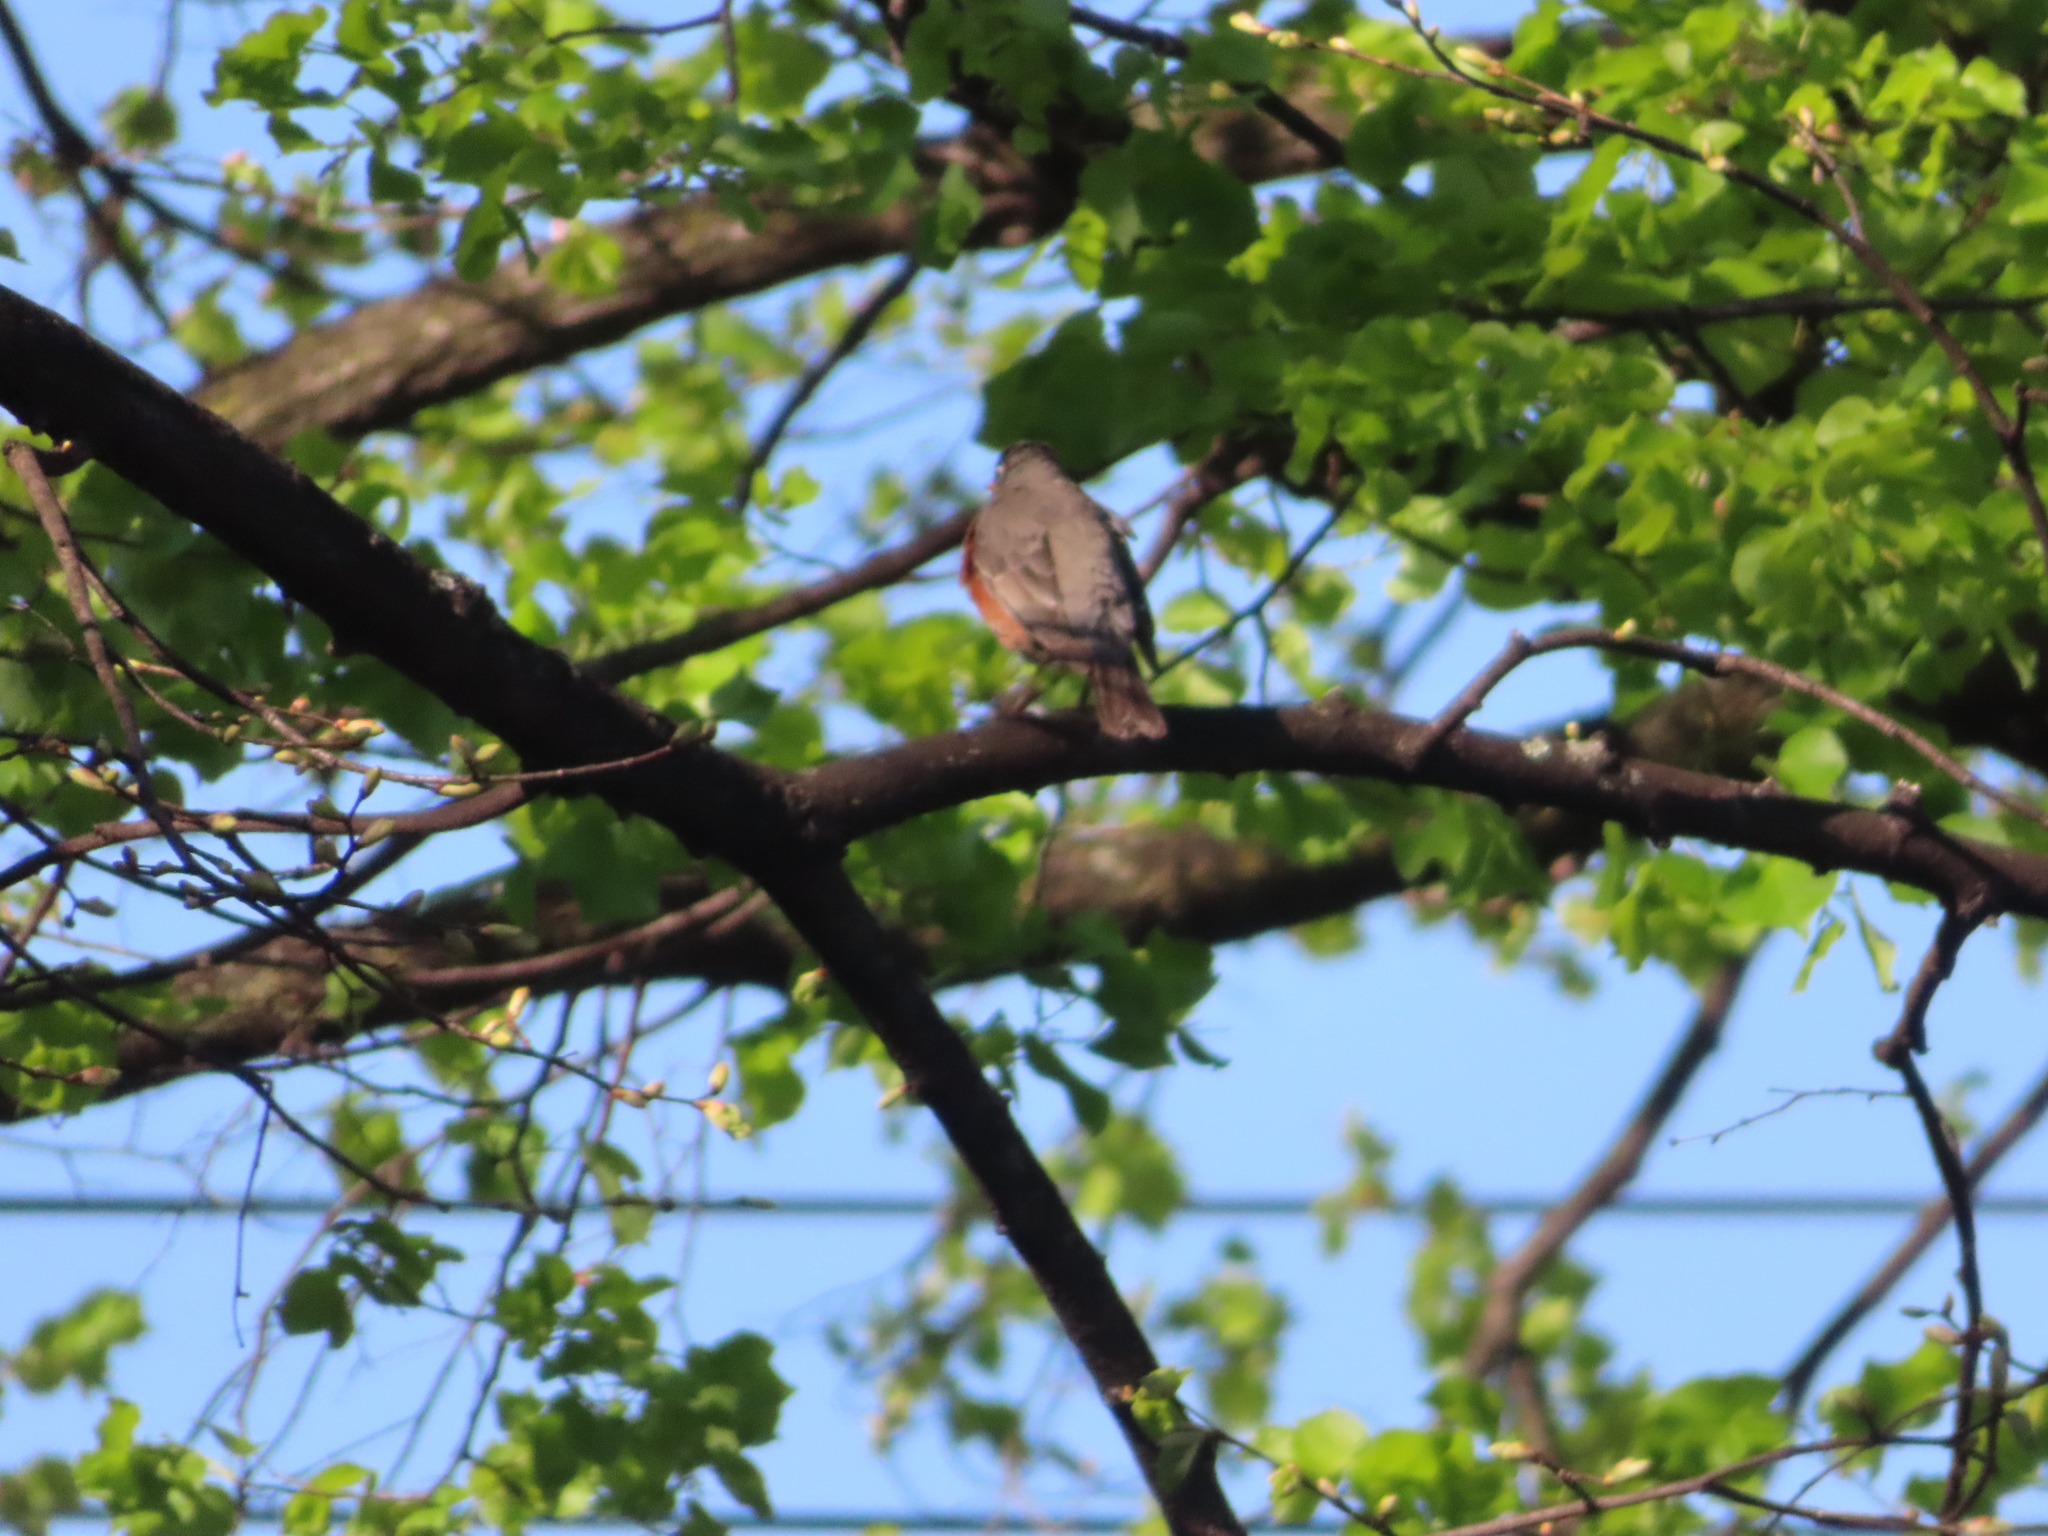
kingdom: Animalia
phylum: Chordata
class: Aves
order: Passeriformes
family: Turdidae
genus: Turdus
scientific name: Turdus migratorius
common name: American robin
